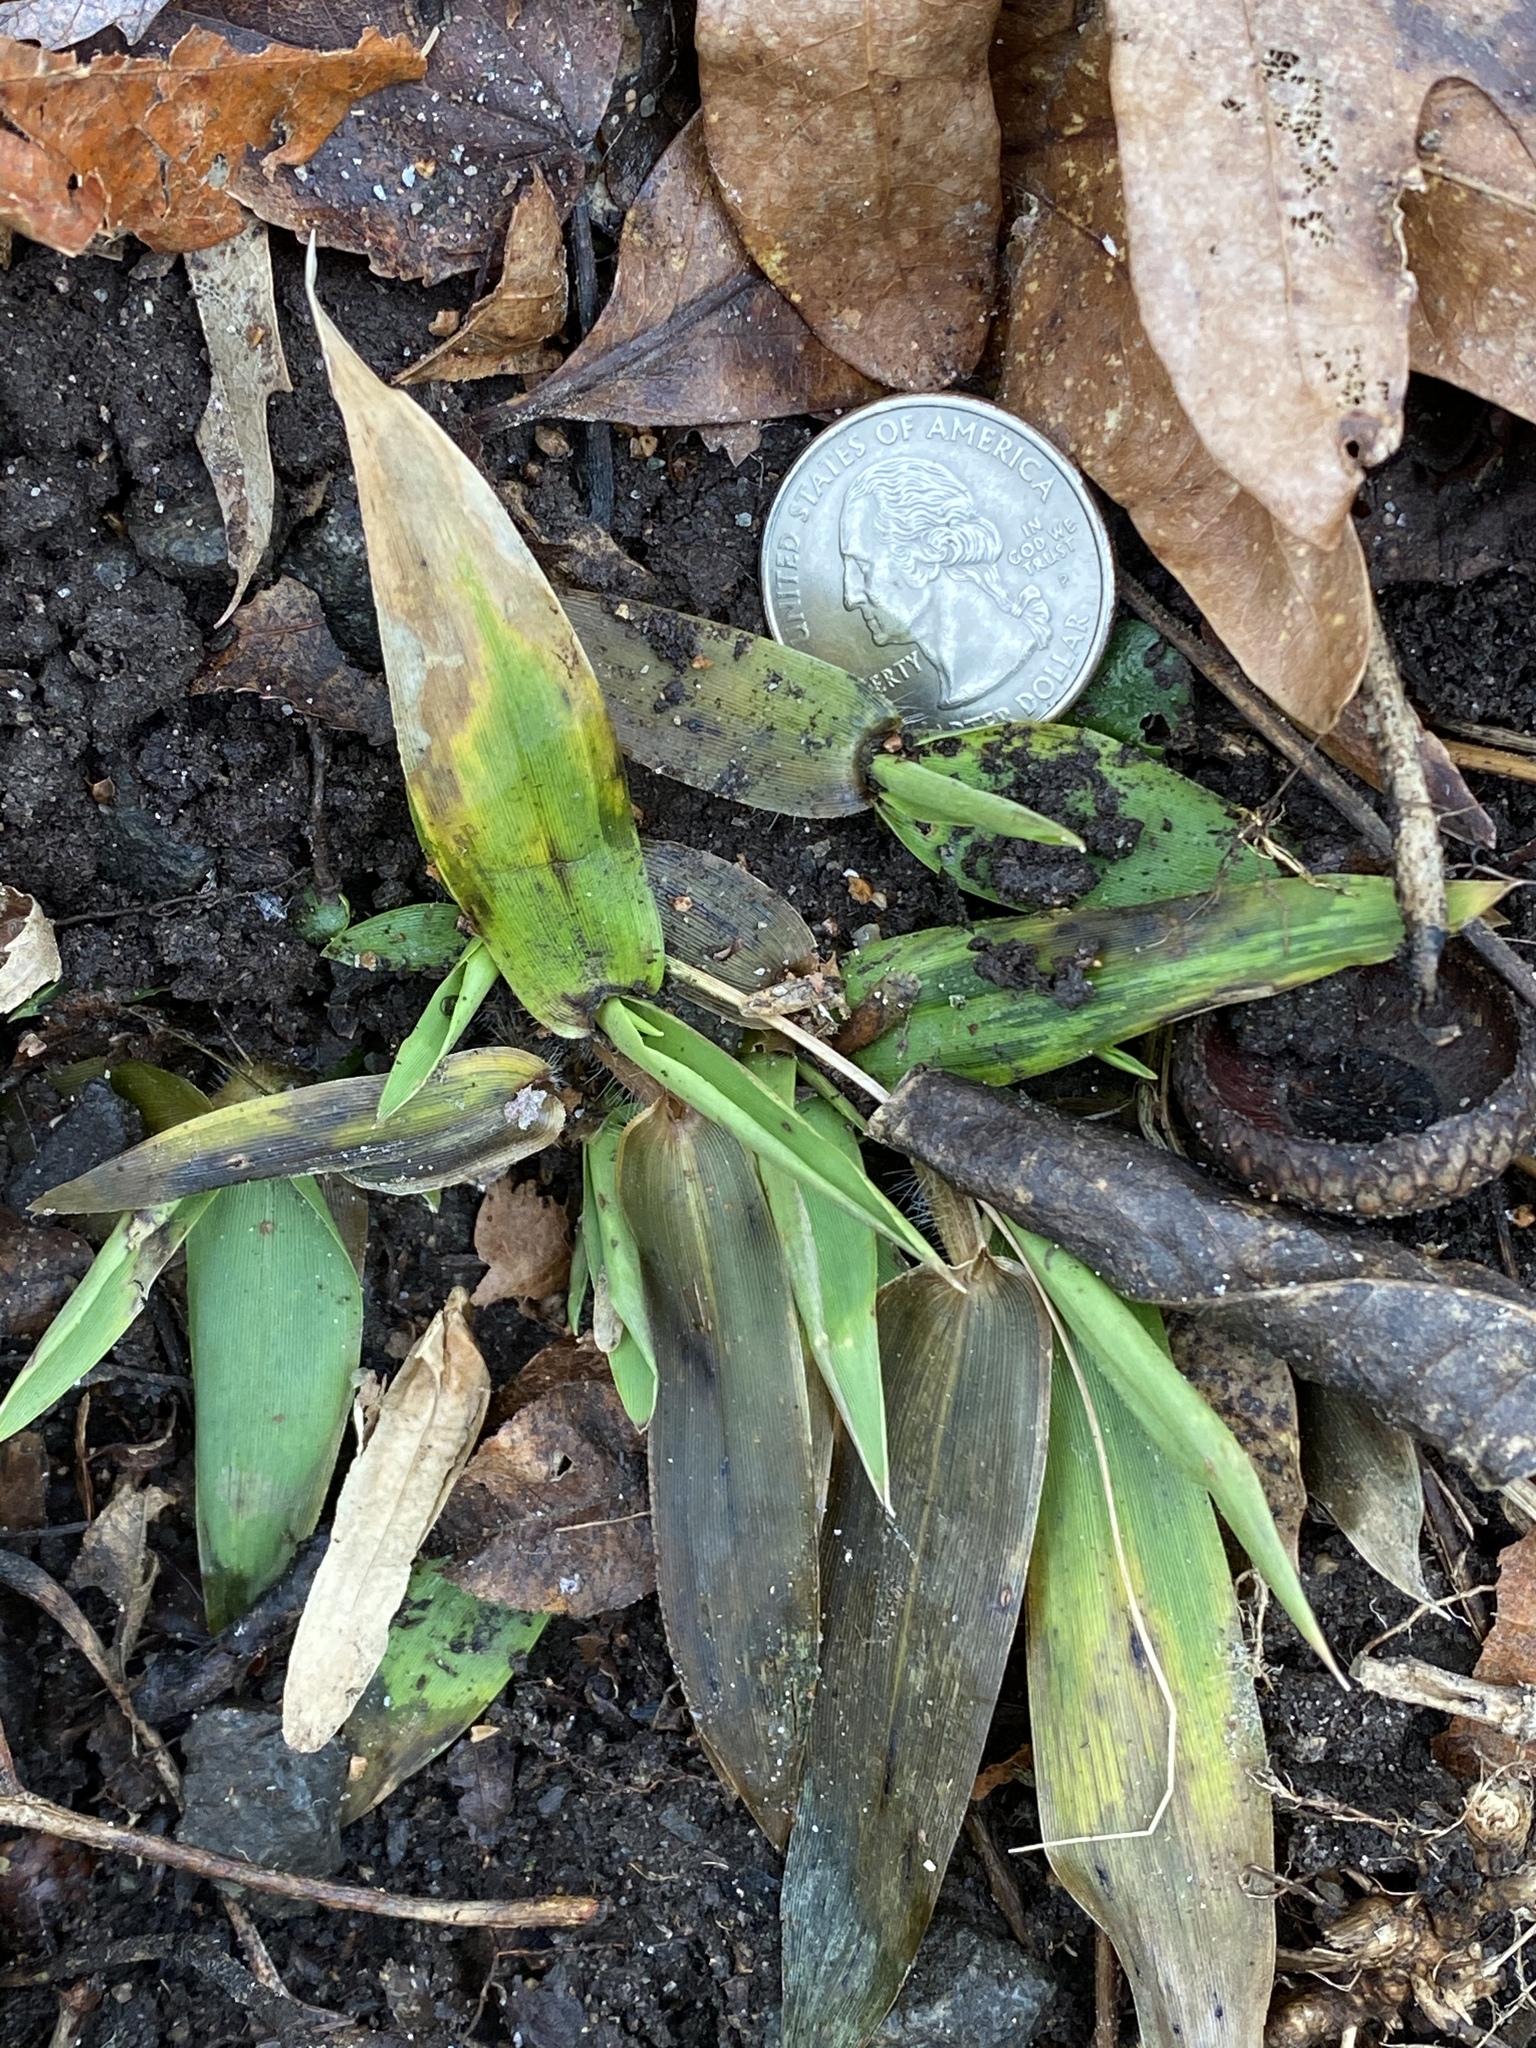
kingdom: Plantae
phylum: Tracheophyta
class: Liliopsida
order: Poales
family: Poaceae
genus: Dichanthelium
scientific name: Dichanthelium clandestinum
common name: Deer-tongue grass
